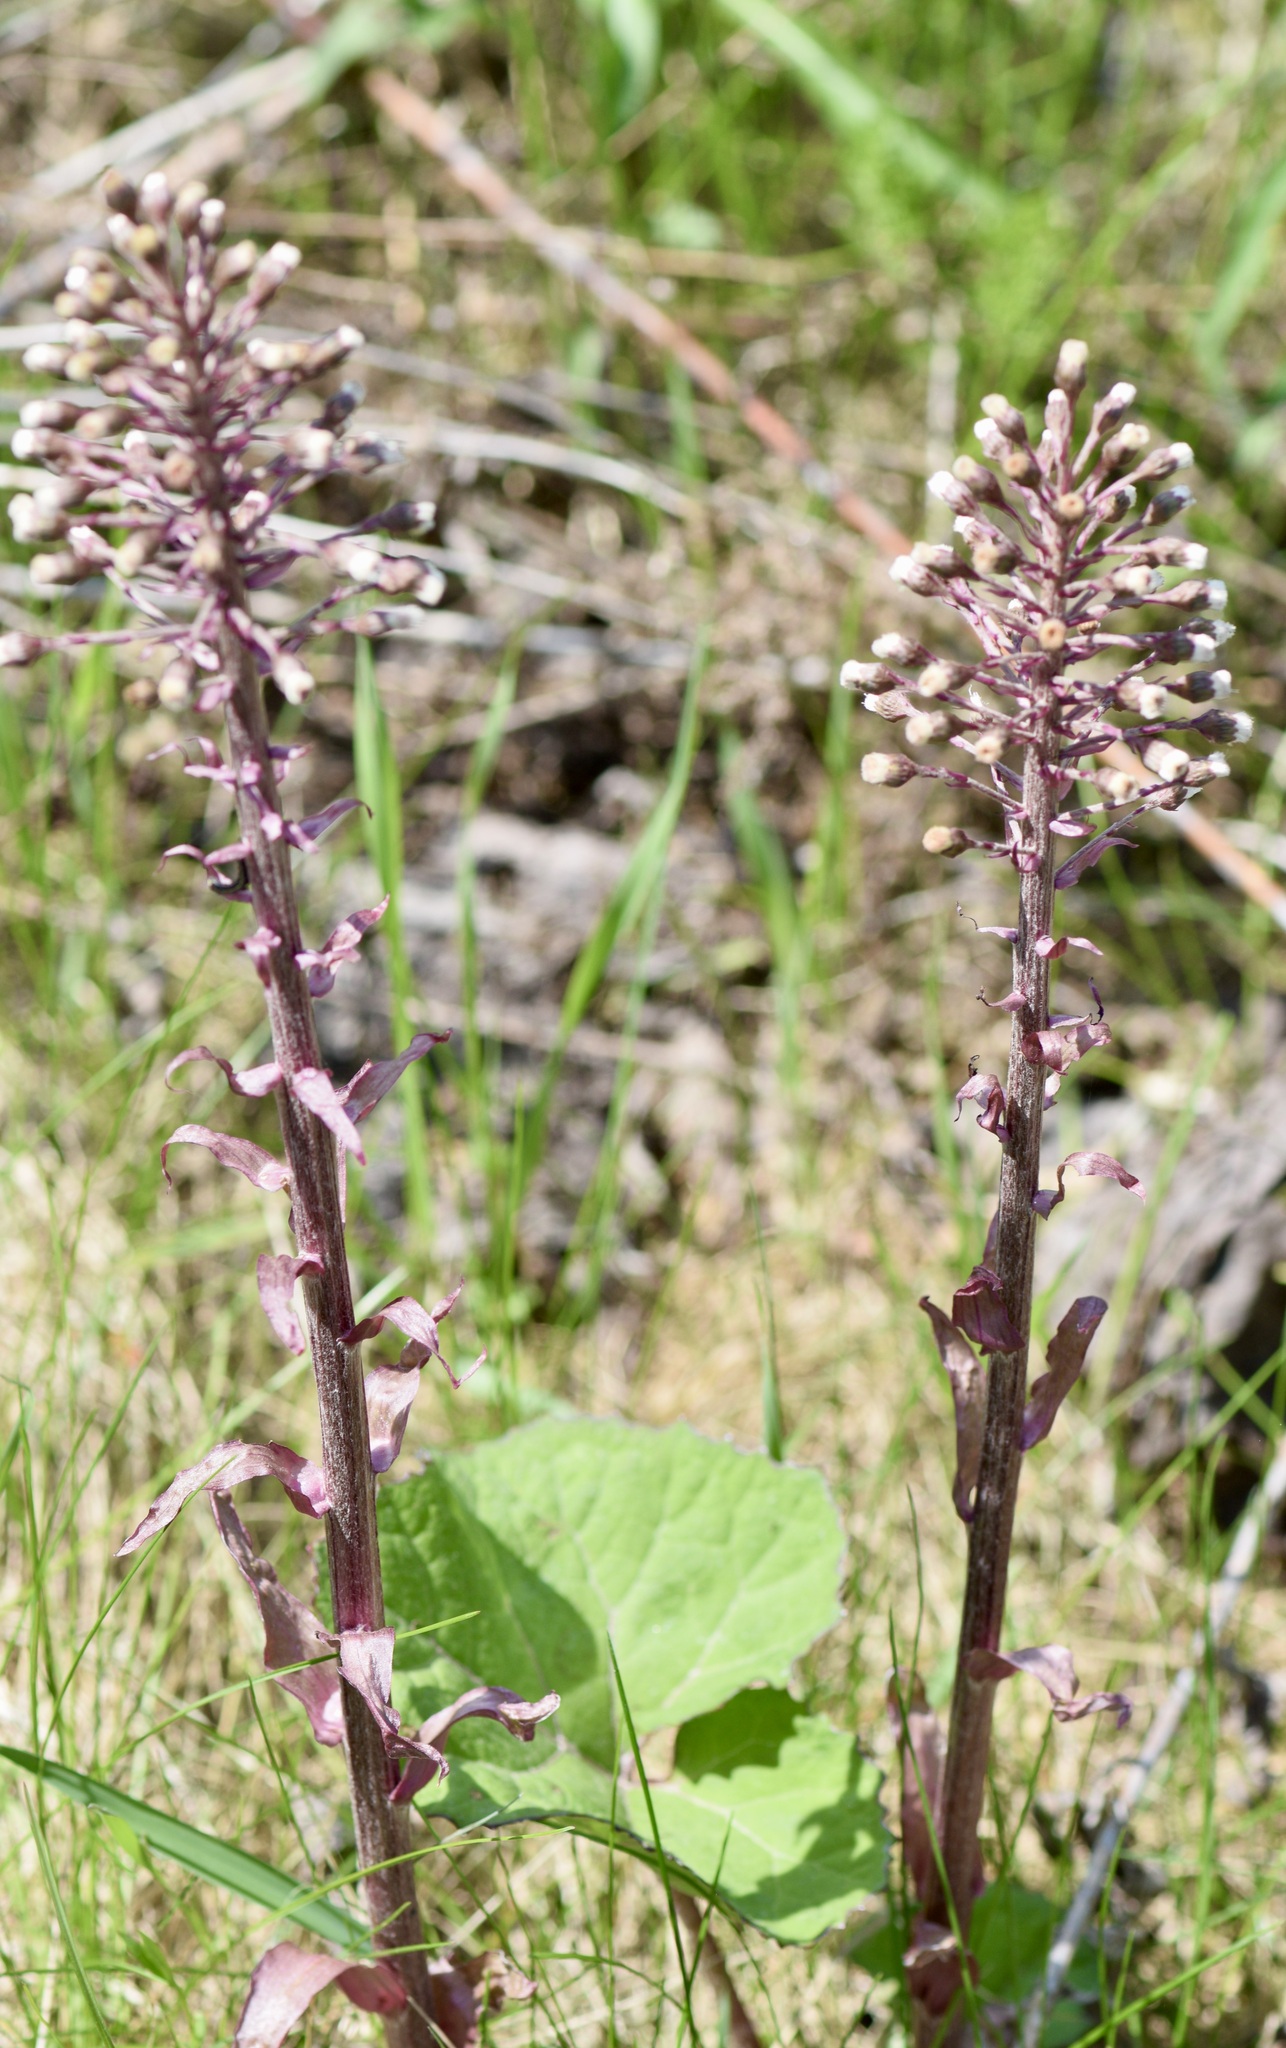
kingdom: Plantae
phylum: Tracheophyta
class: Magnoliopsida
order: Asterales
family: Asteraceae
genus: Petasites
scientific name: Petasites hybridus
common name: Butterbur
